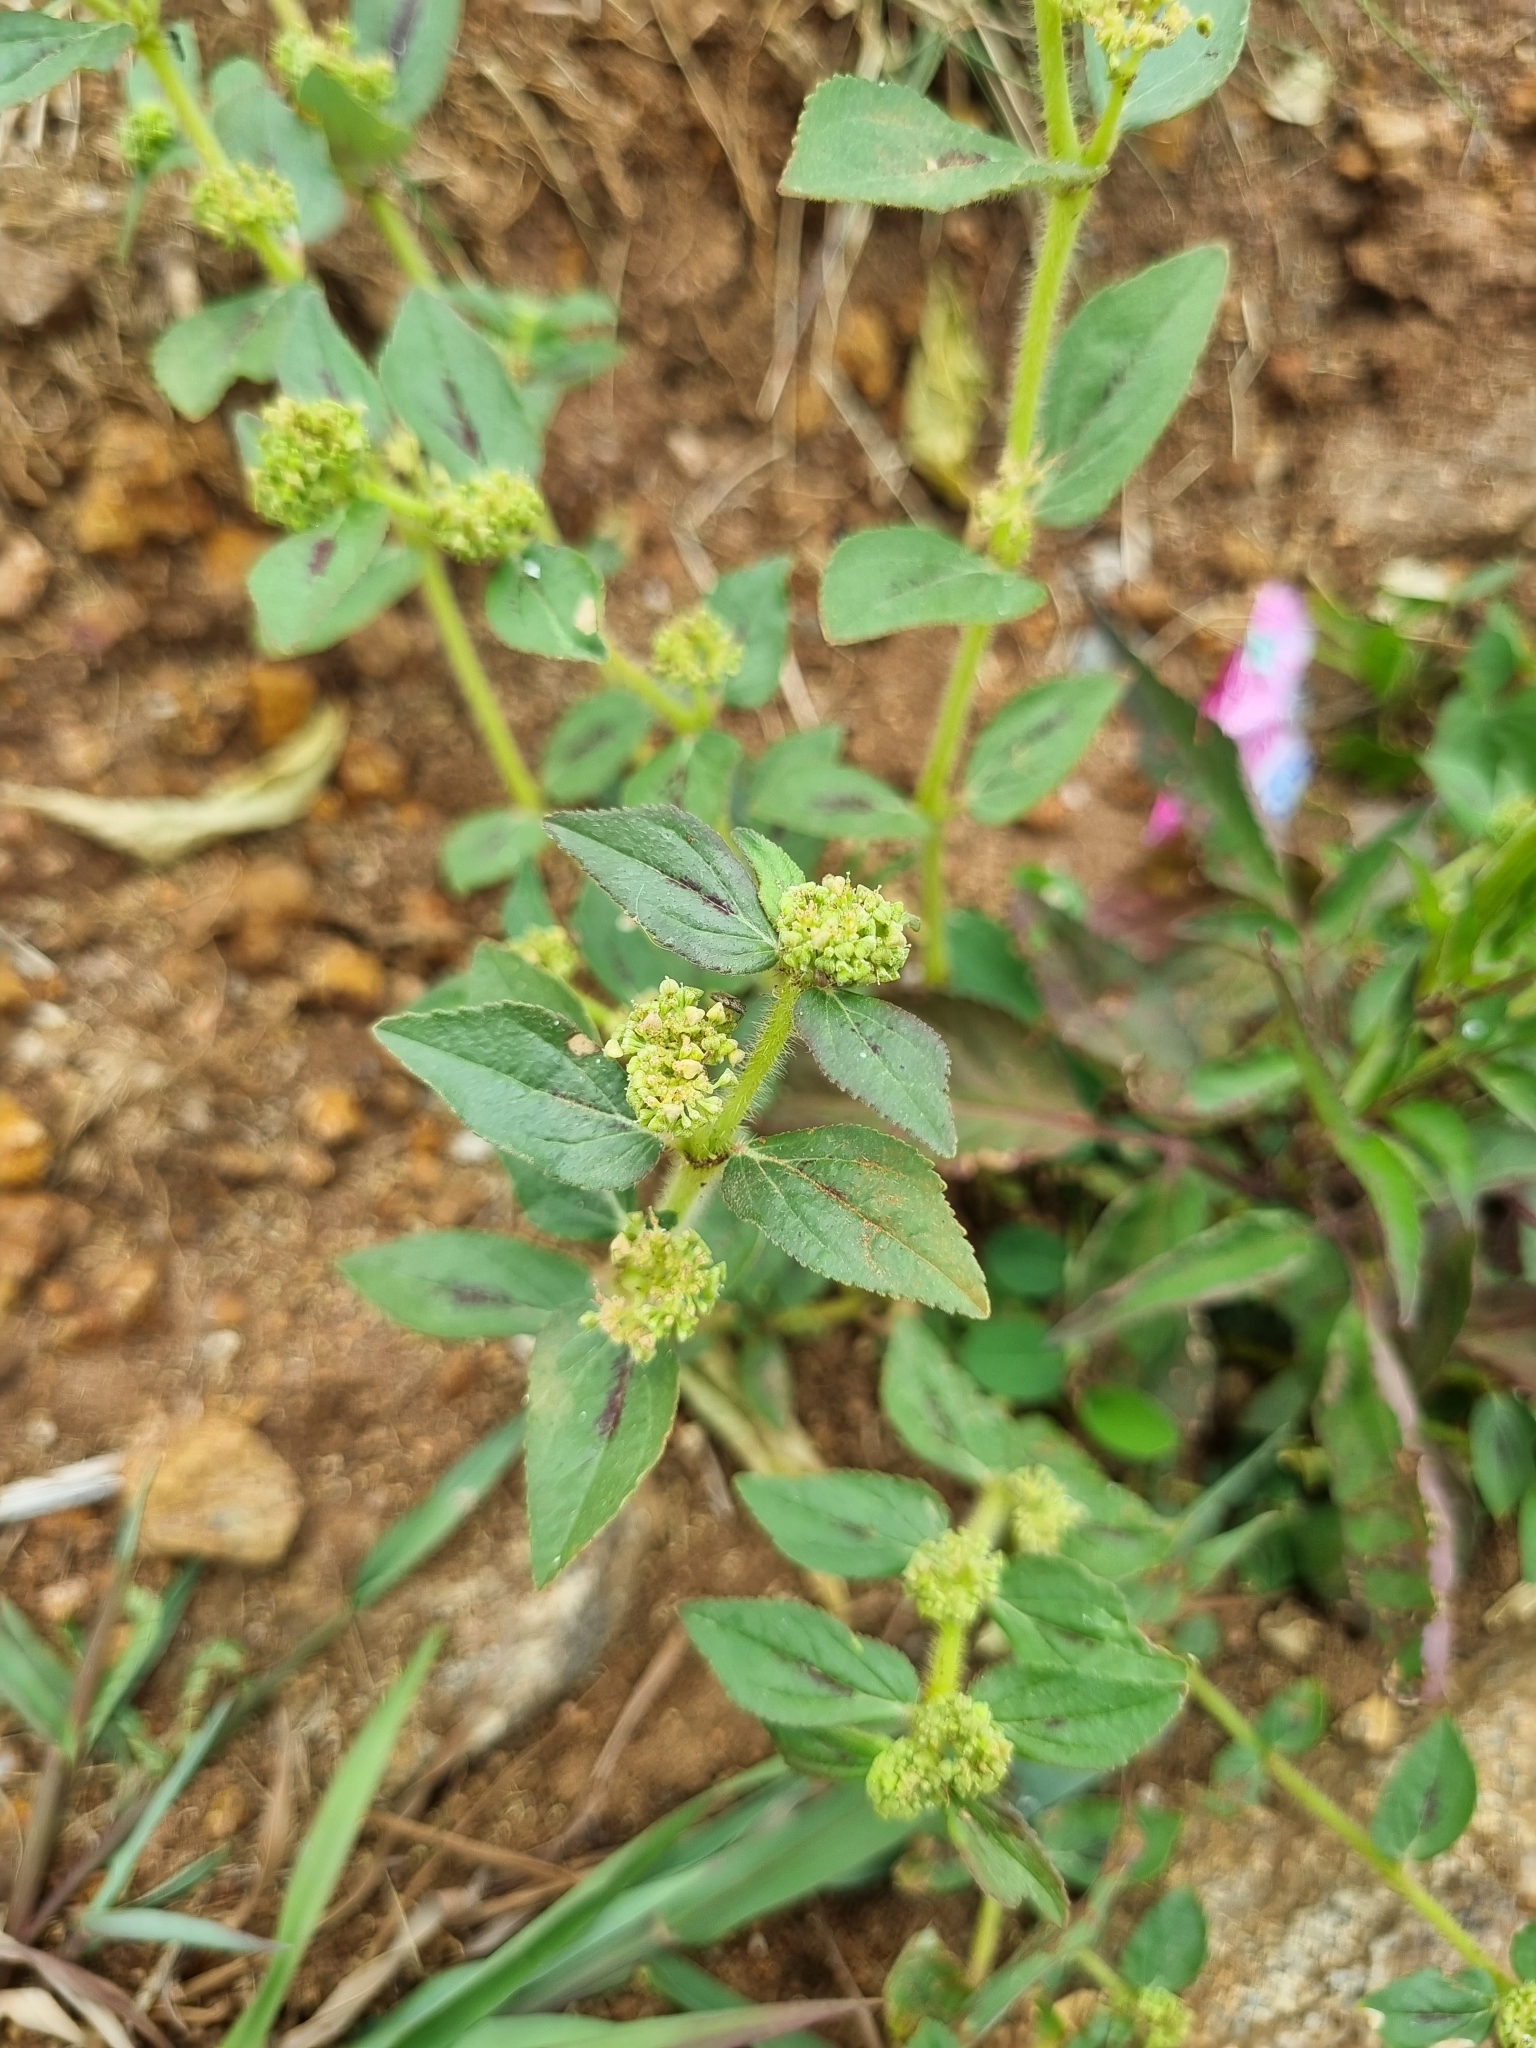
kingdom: Plantae
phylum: Tracheophyta
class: Magnoliopsida
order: Malpighiales
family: Euphorbiaceae
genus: Euphorbia
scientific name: Euphorbia hirta
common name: Pillpod sandmat
